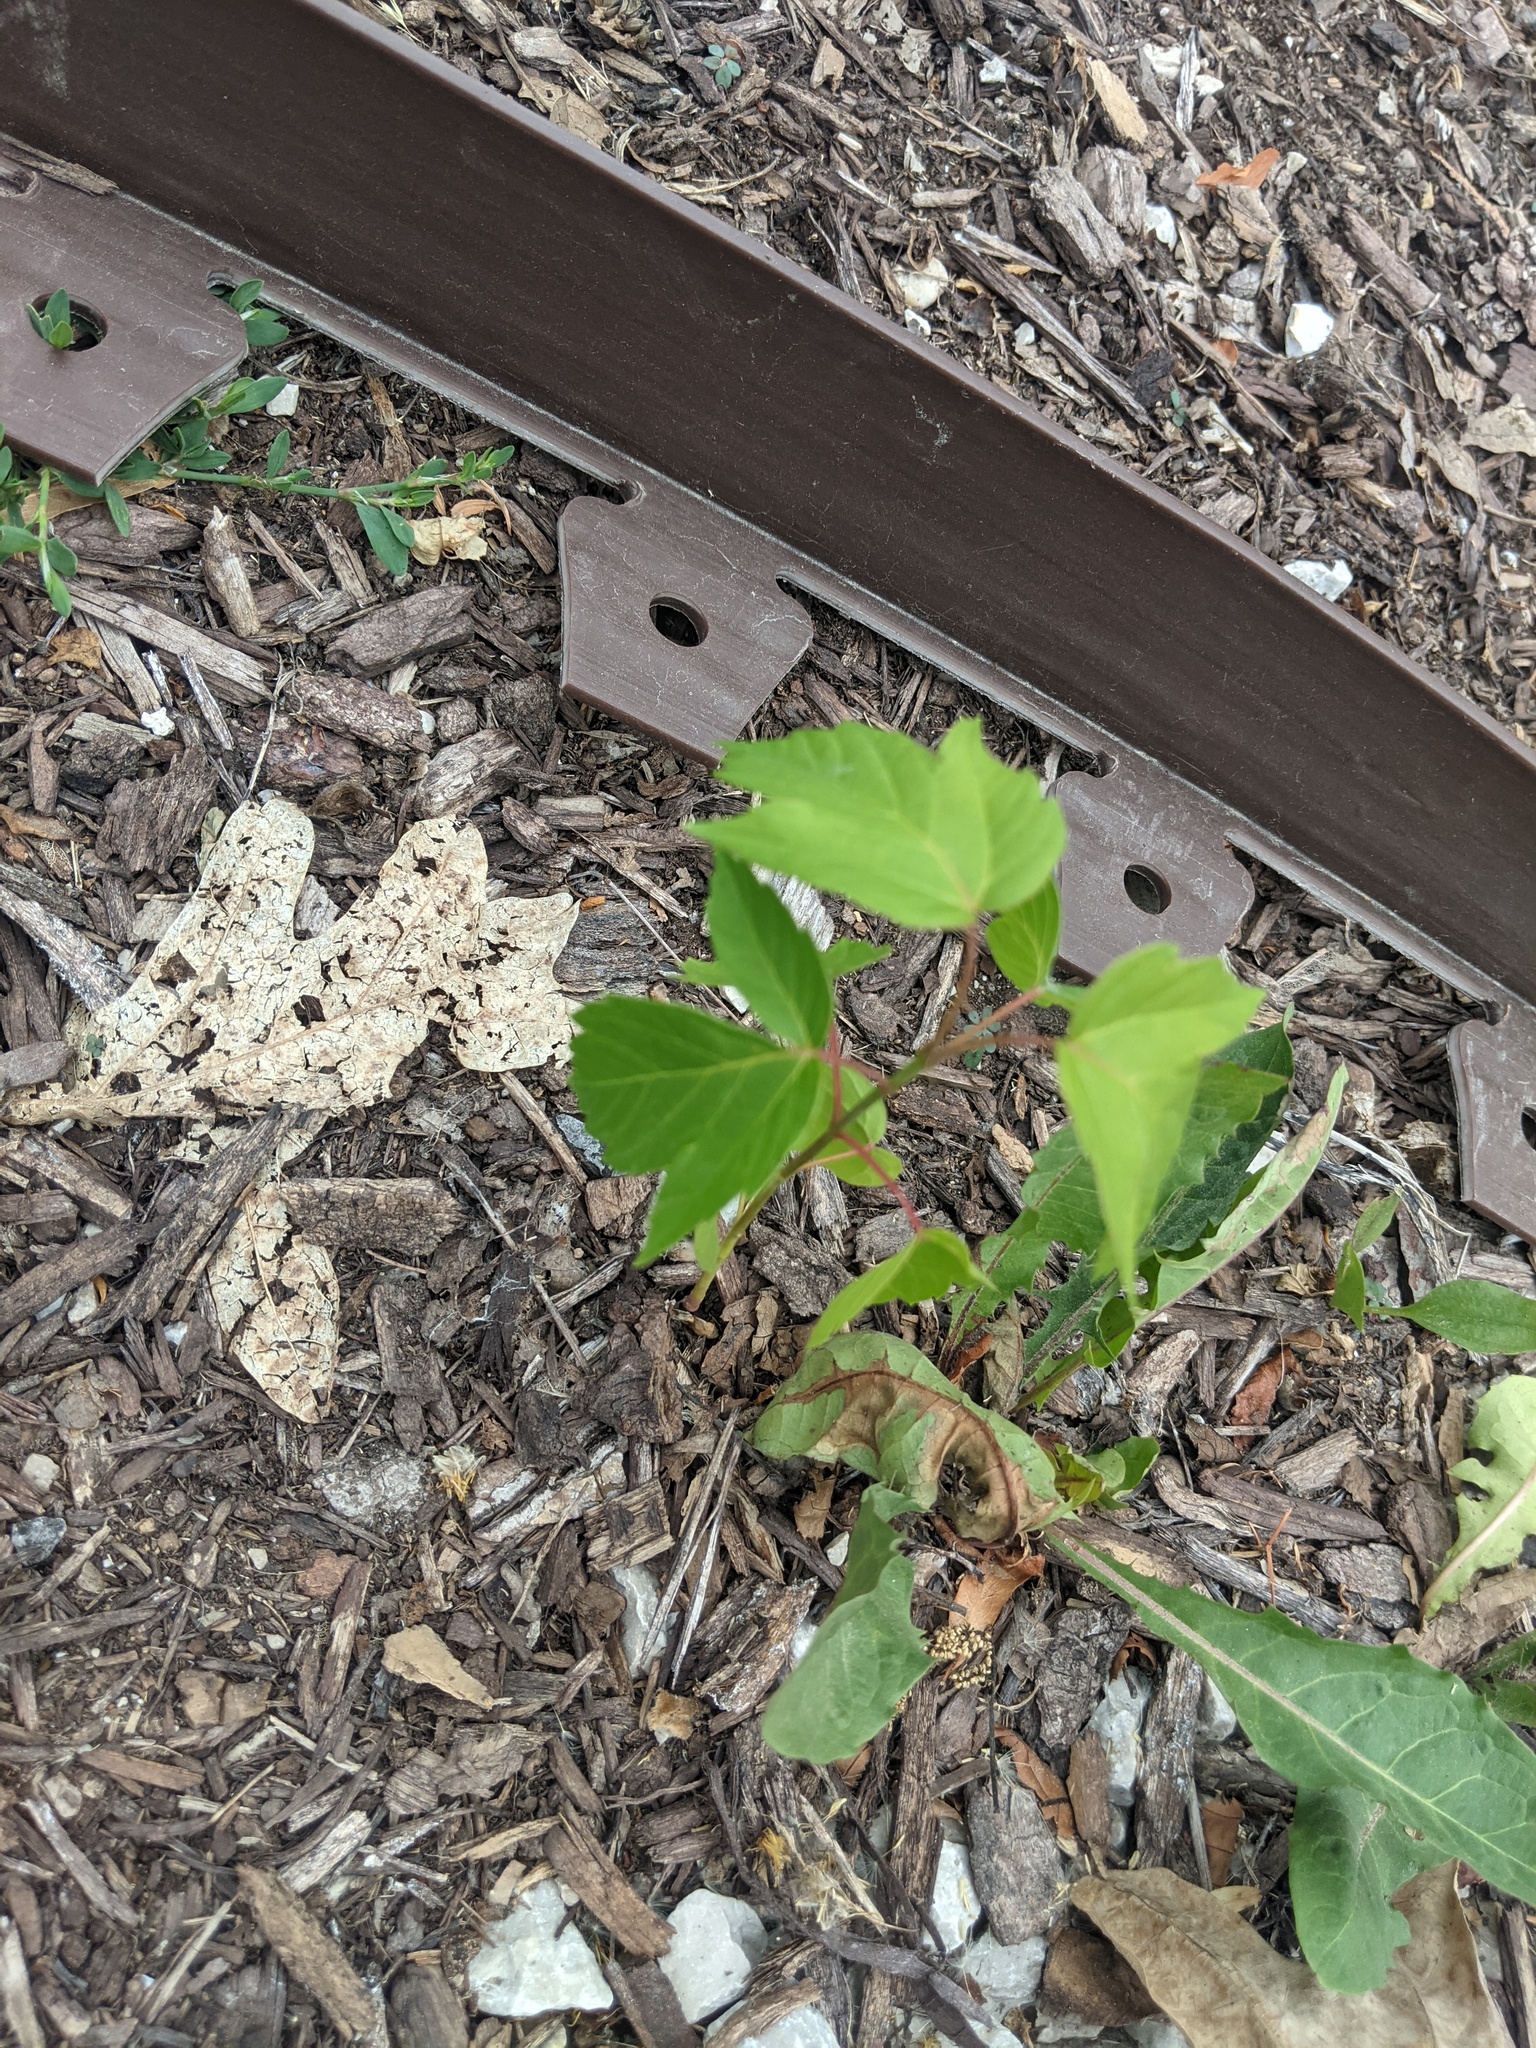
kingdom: Plantae
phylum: Tracheophyta
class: Magnoliopsida
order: Sapindales
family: Sapindaceae
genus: Acer
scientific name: Acer negundo
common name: Ashleaf maple
